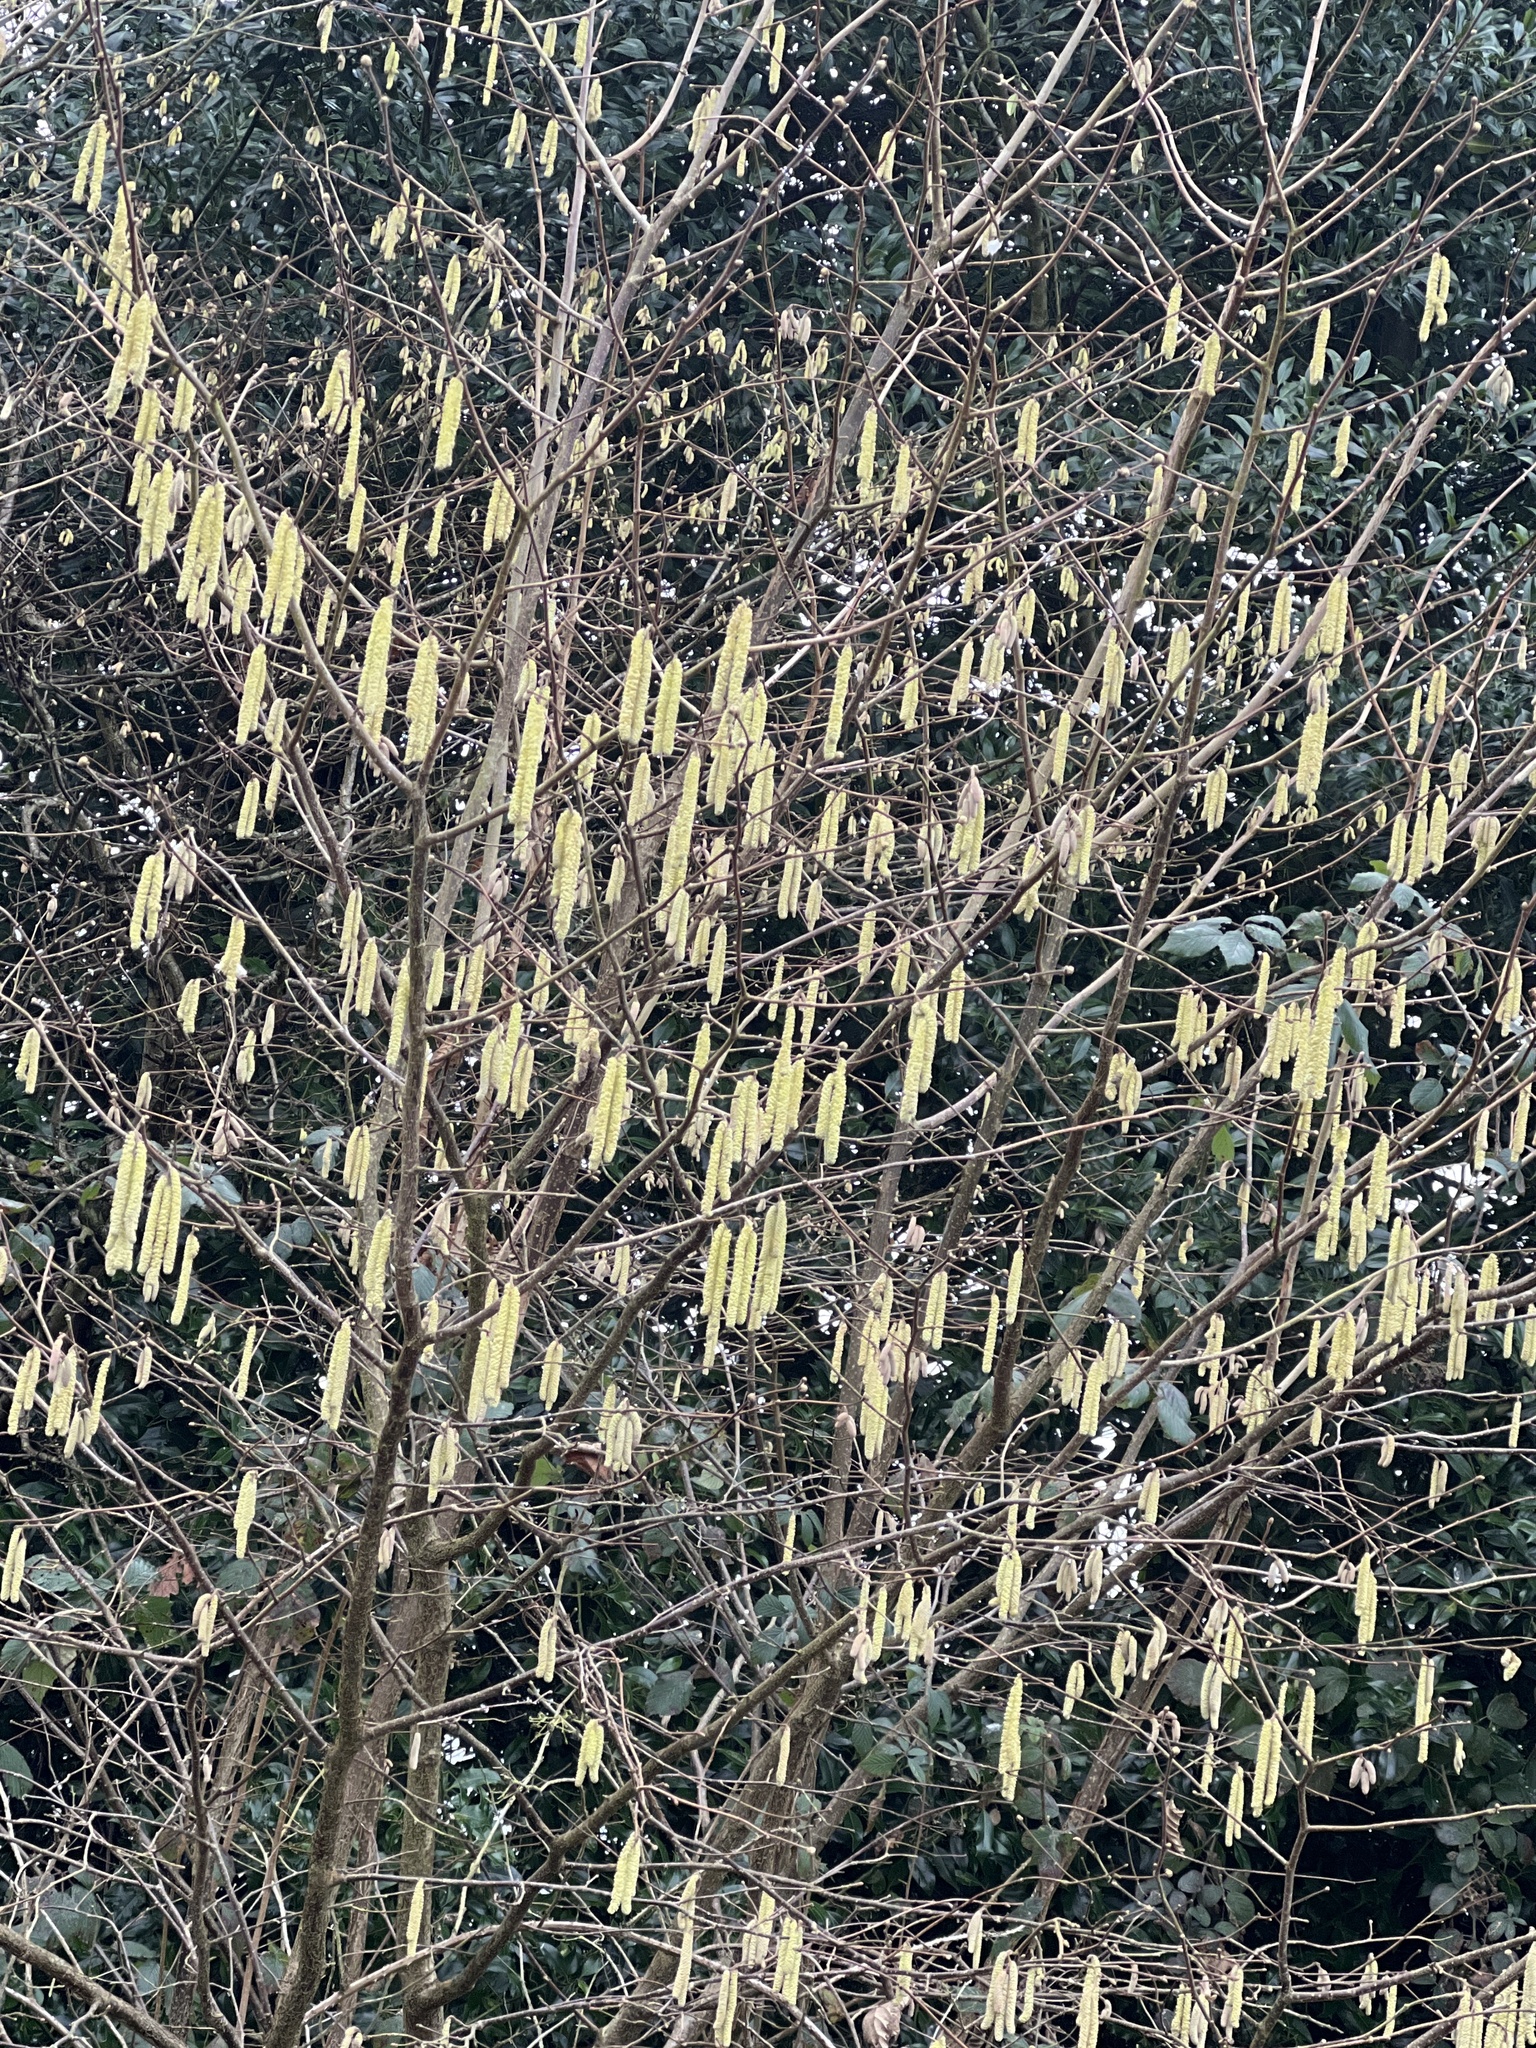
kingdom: Plantae
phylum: Tracheophyta
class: Magnoliopsida
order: Fagales
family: Betulaceae
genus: Corylus
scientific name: Corylus avellana
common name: European hazel
